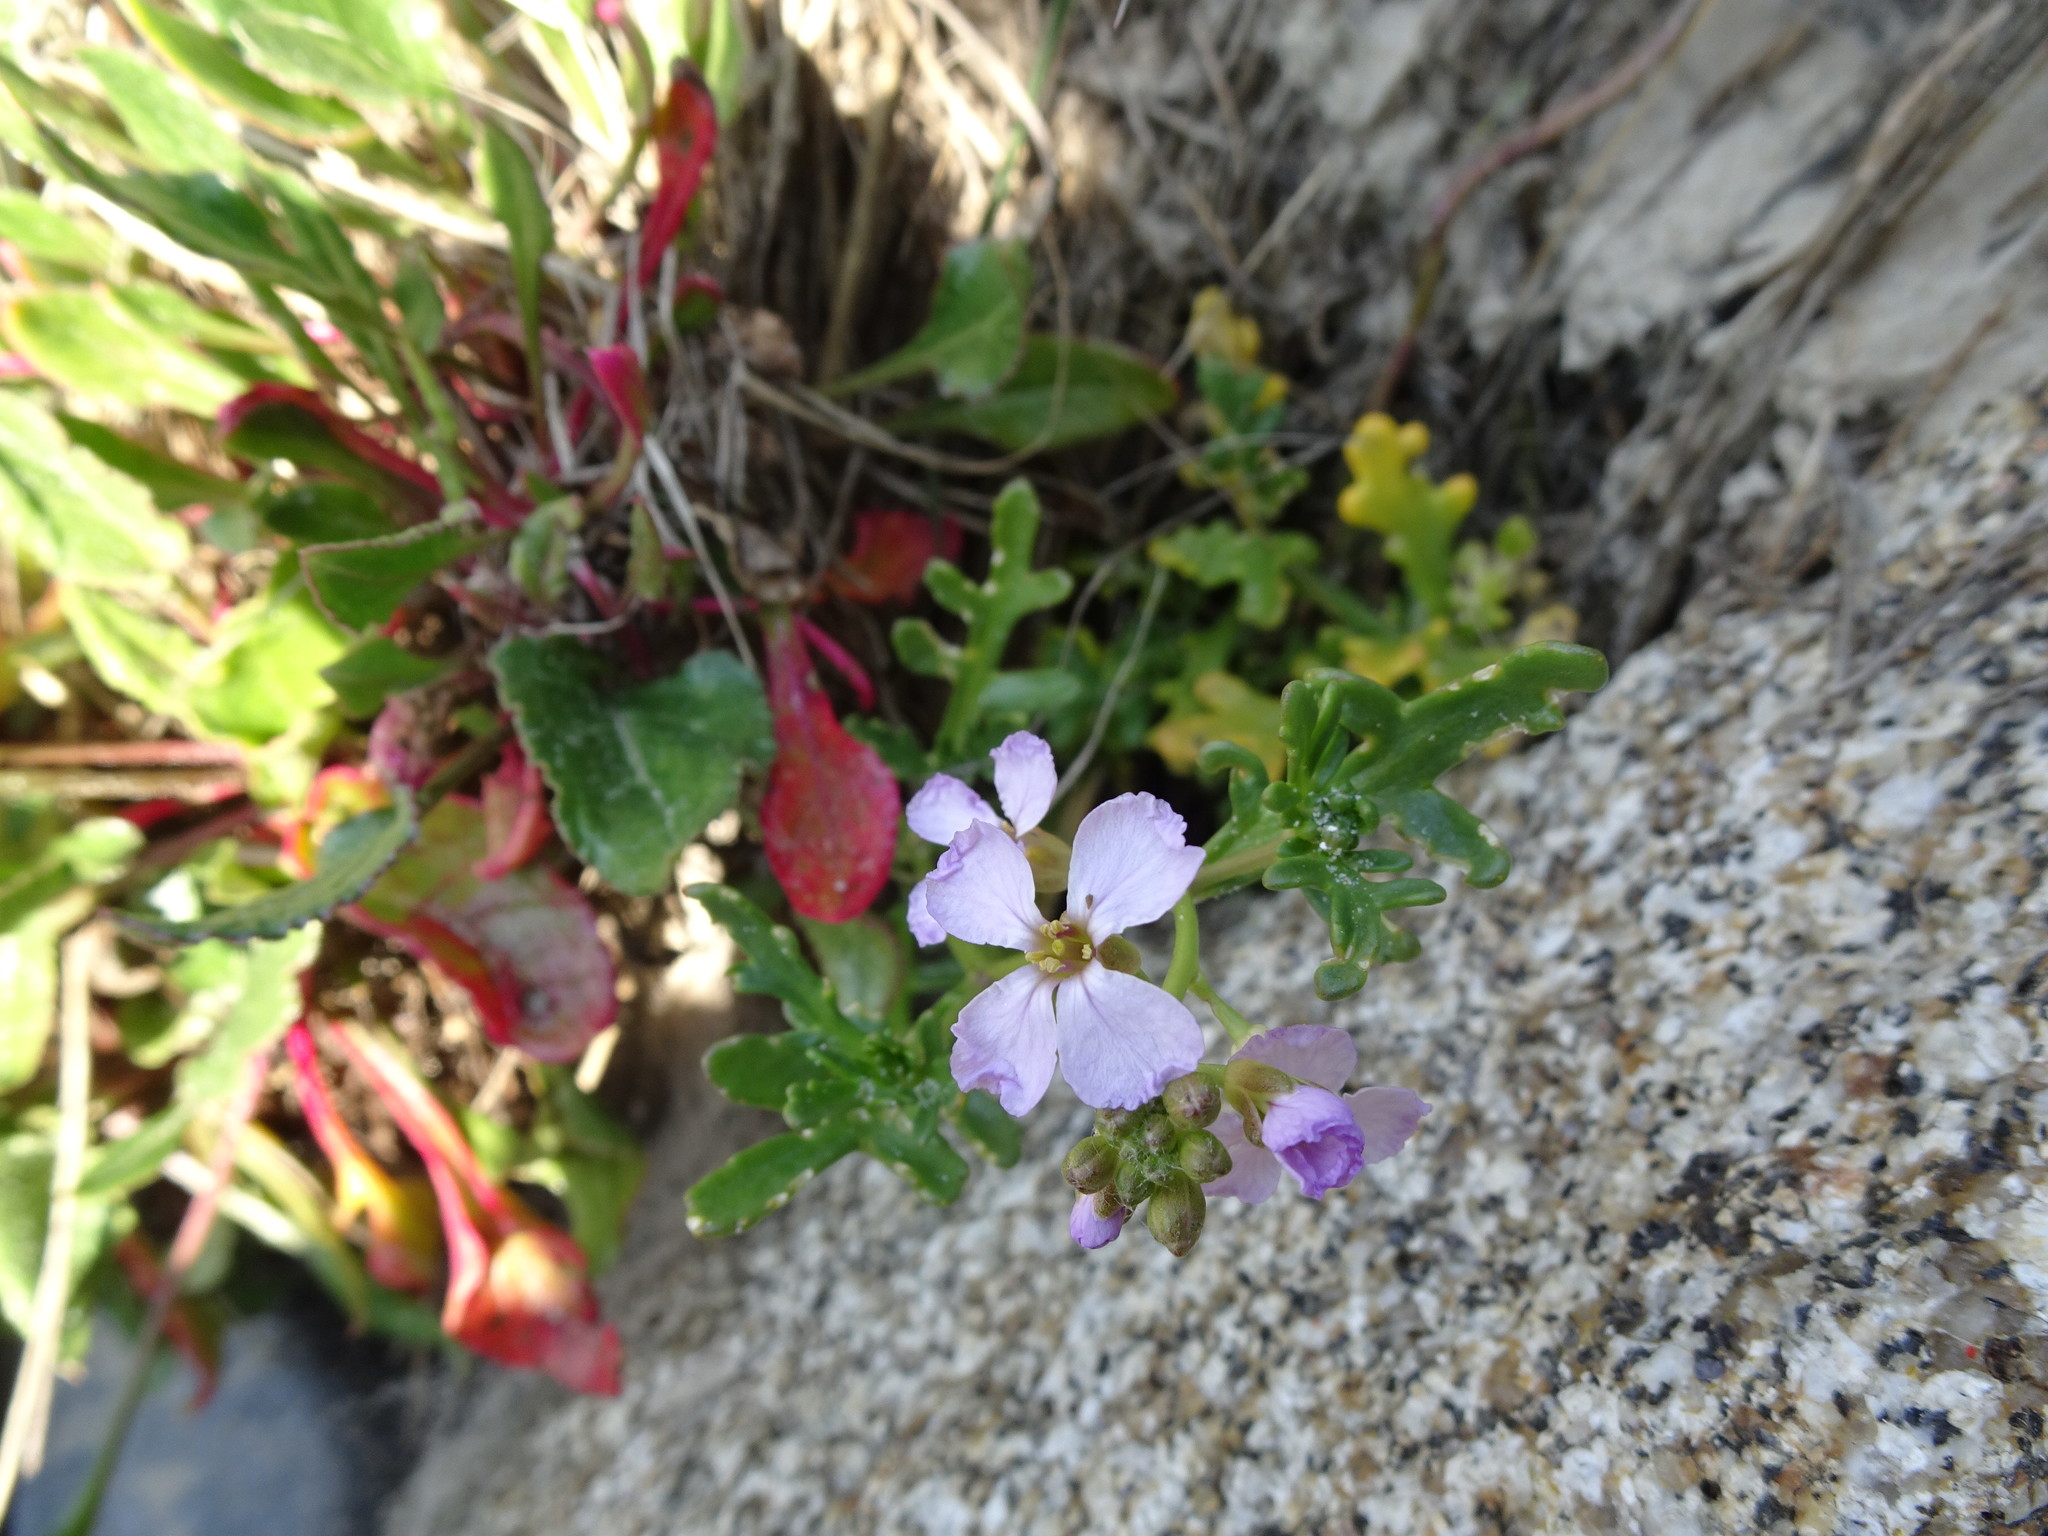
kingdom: Plantae
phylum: Tracheophyta
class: Magnoliopsida
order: Brassicales
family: Brassicaceae
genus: Cakile
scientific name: Cakile maritima
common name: Sea rocket
